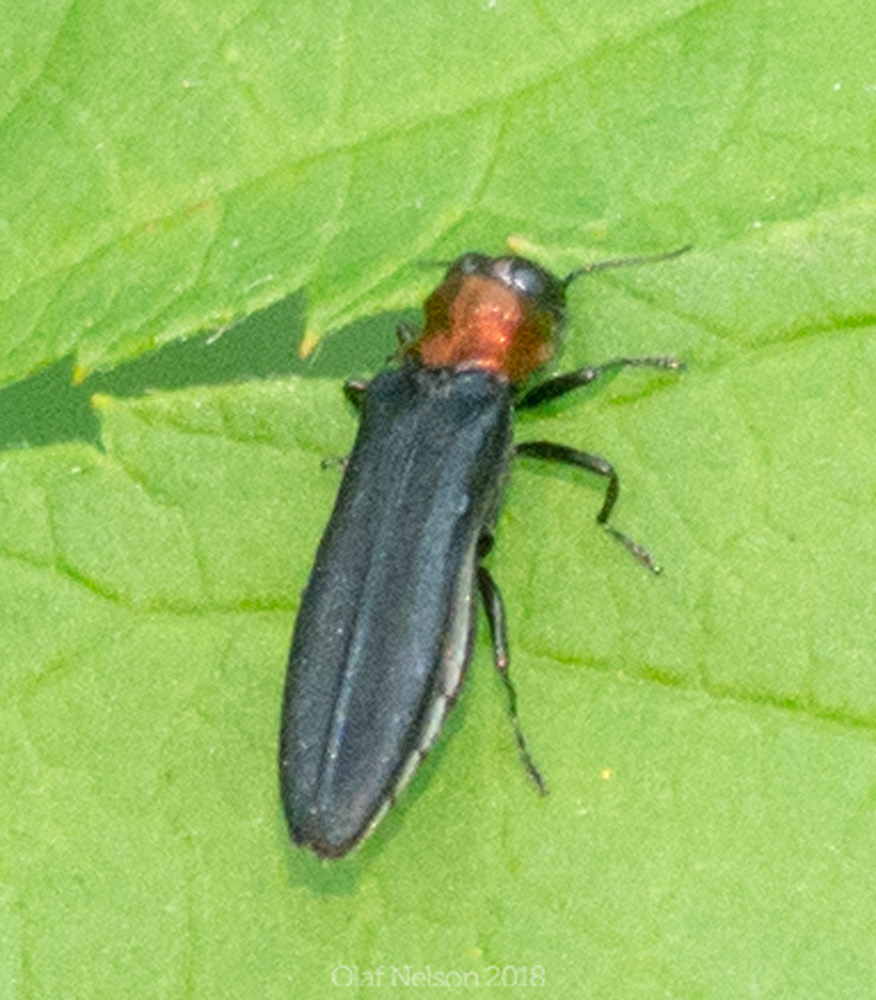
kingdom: Animalia
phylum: Arthropoda
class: Insecta
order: Coleoptera
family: Buprestidae
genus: Agrilus
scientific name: Agrilus ruficollis
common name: Red-necked cane borer beetle
